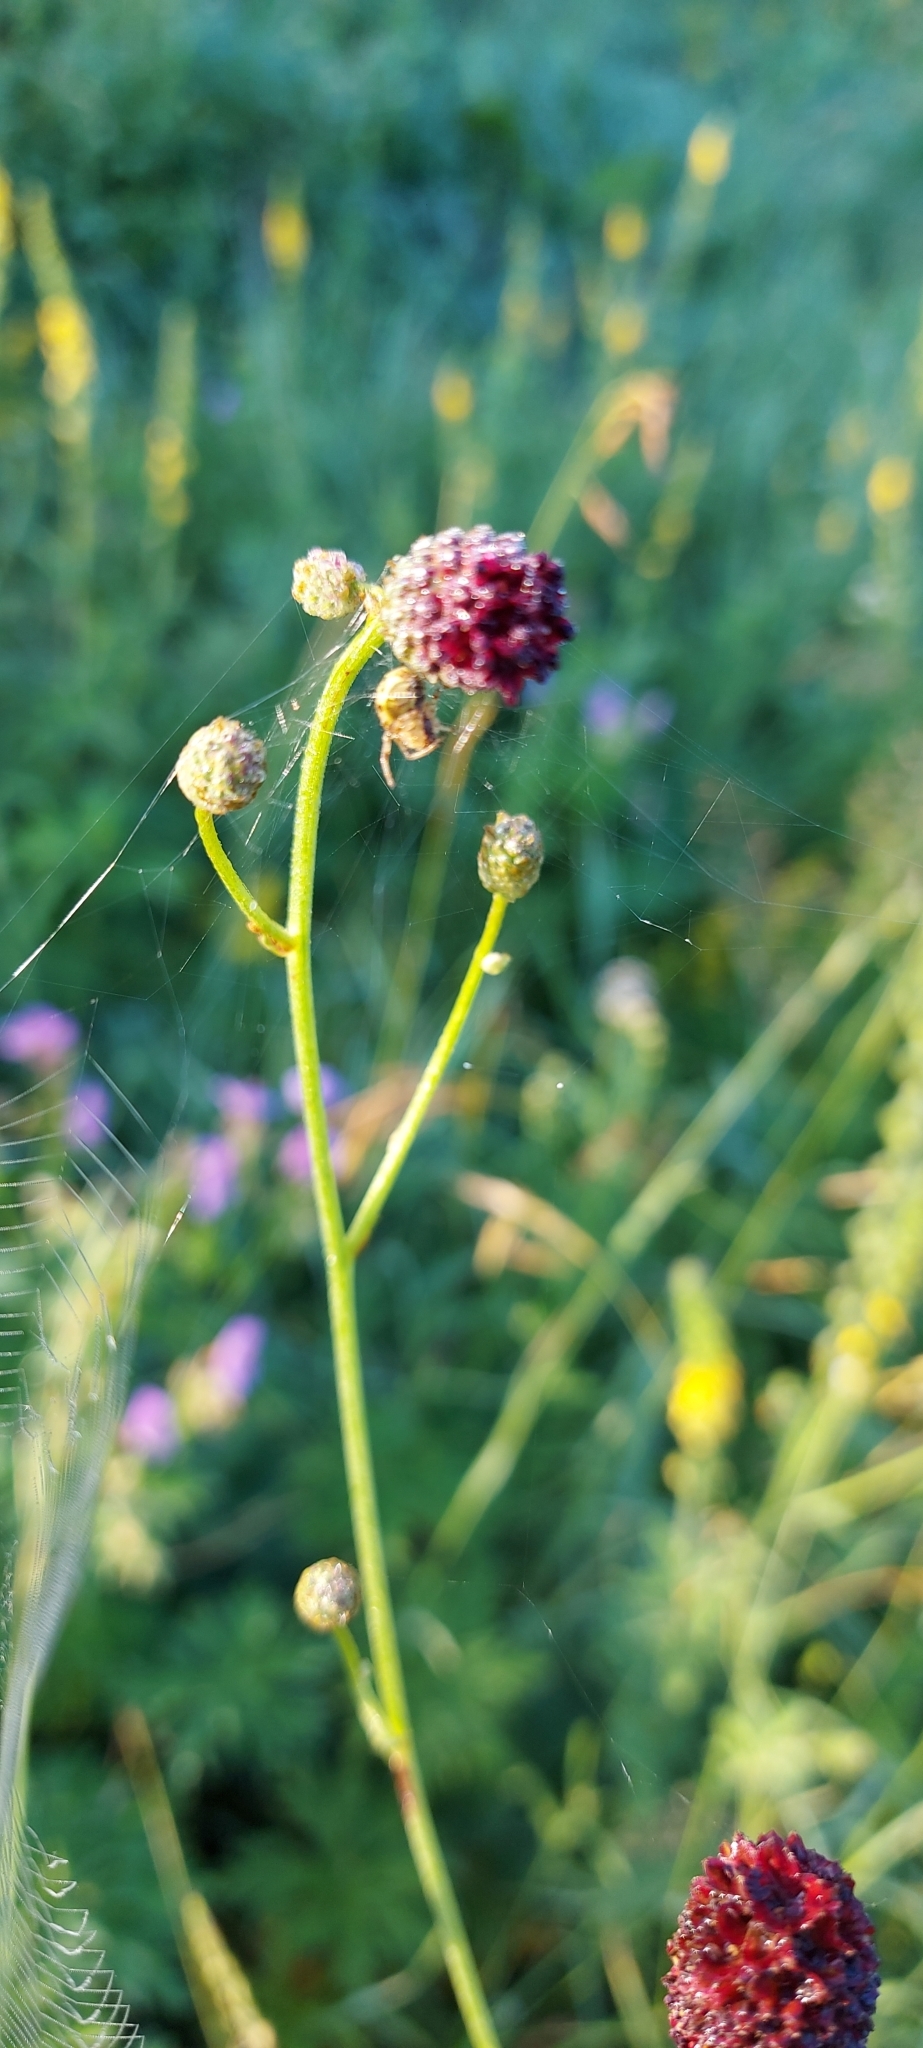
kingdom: Plantae
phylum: Tracheophyta
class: Magnoliopsida
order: Rosales
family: Rosaceae
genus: Sanguisorba
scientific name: Sanguisorba officinalis
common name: Great burnet
